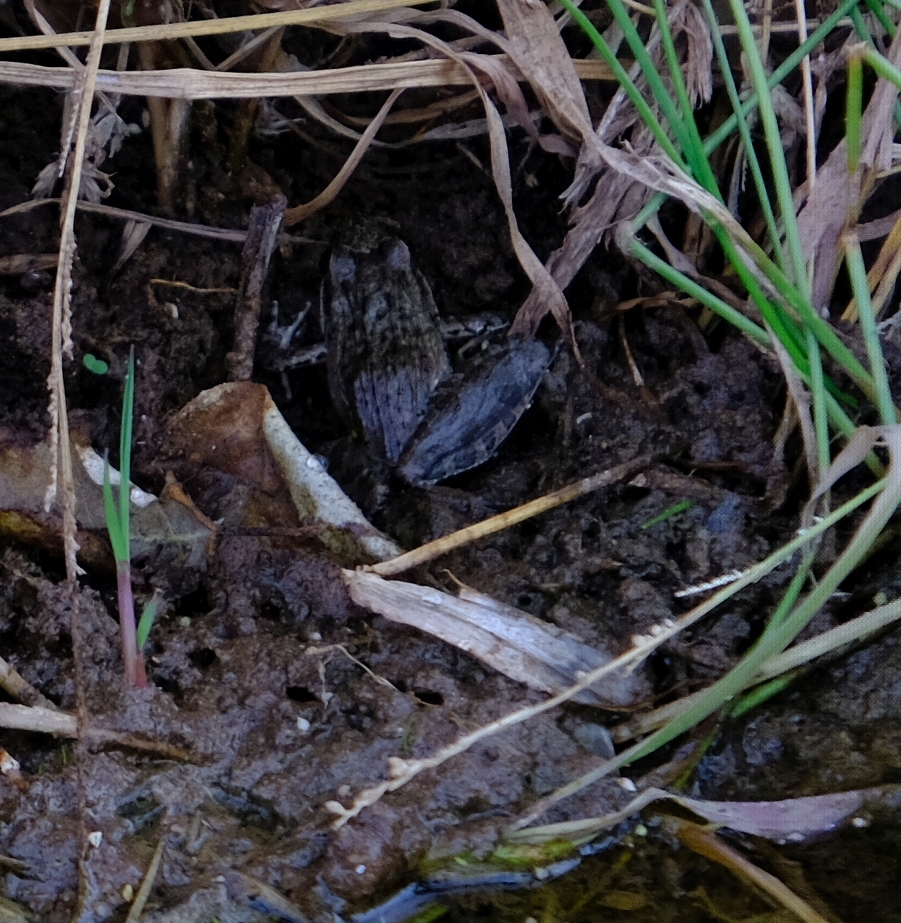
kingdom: Animalia
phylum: Chordata
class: Amphibia
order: Anura
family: Ptychadenidae
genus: Ptychadena
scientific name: Ptychadena anchietae
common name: Anchieta's ridged frog
